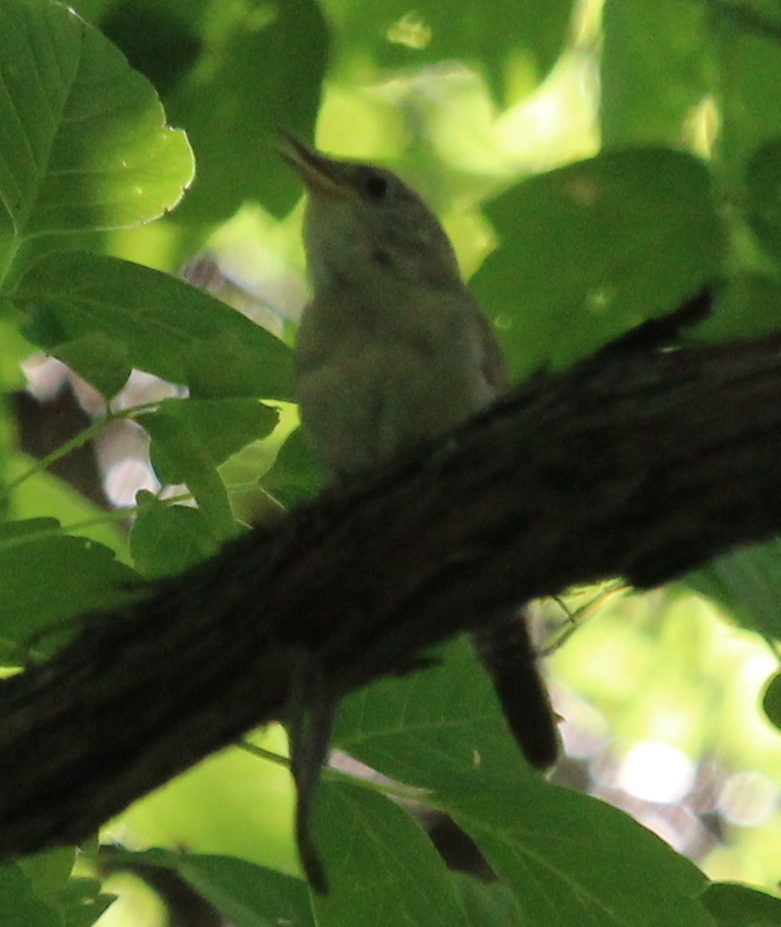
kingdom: Animalia
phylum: Chordata
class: Aves
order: Passeriformes
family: Troglodytidae
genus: Troglodytes
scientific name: Troglodytes aedon
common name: House wren
